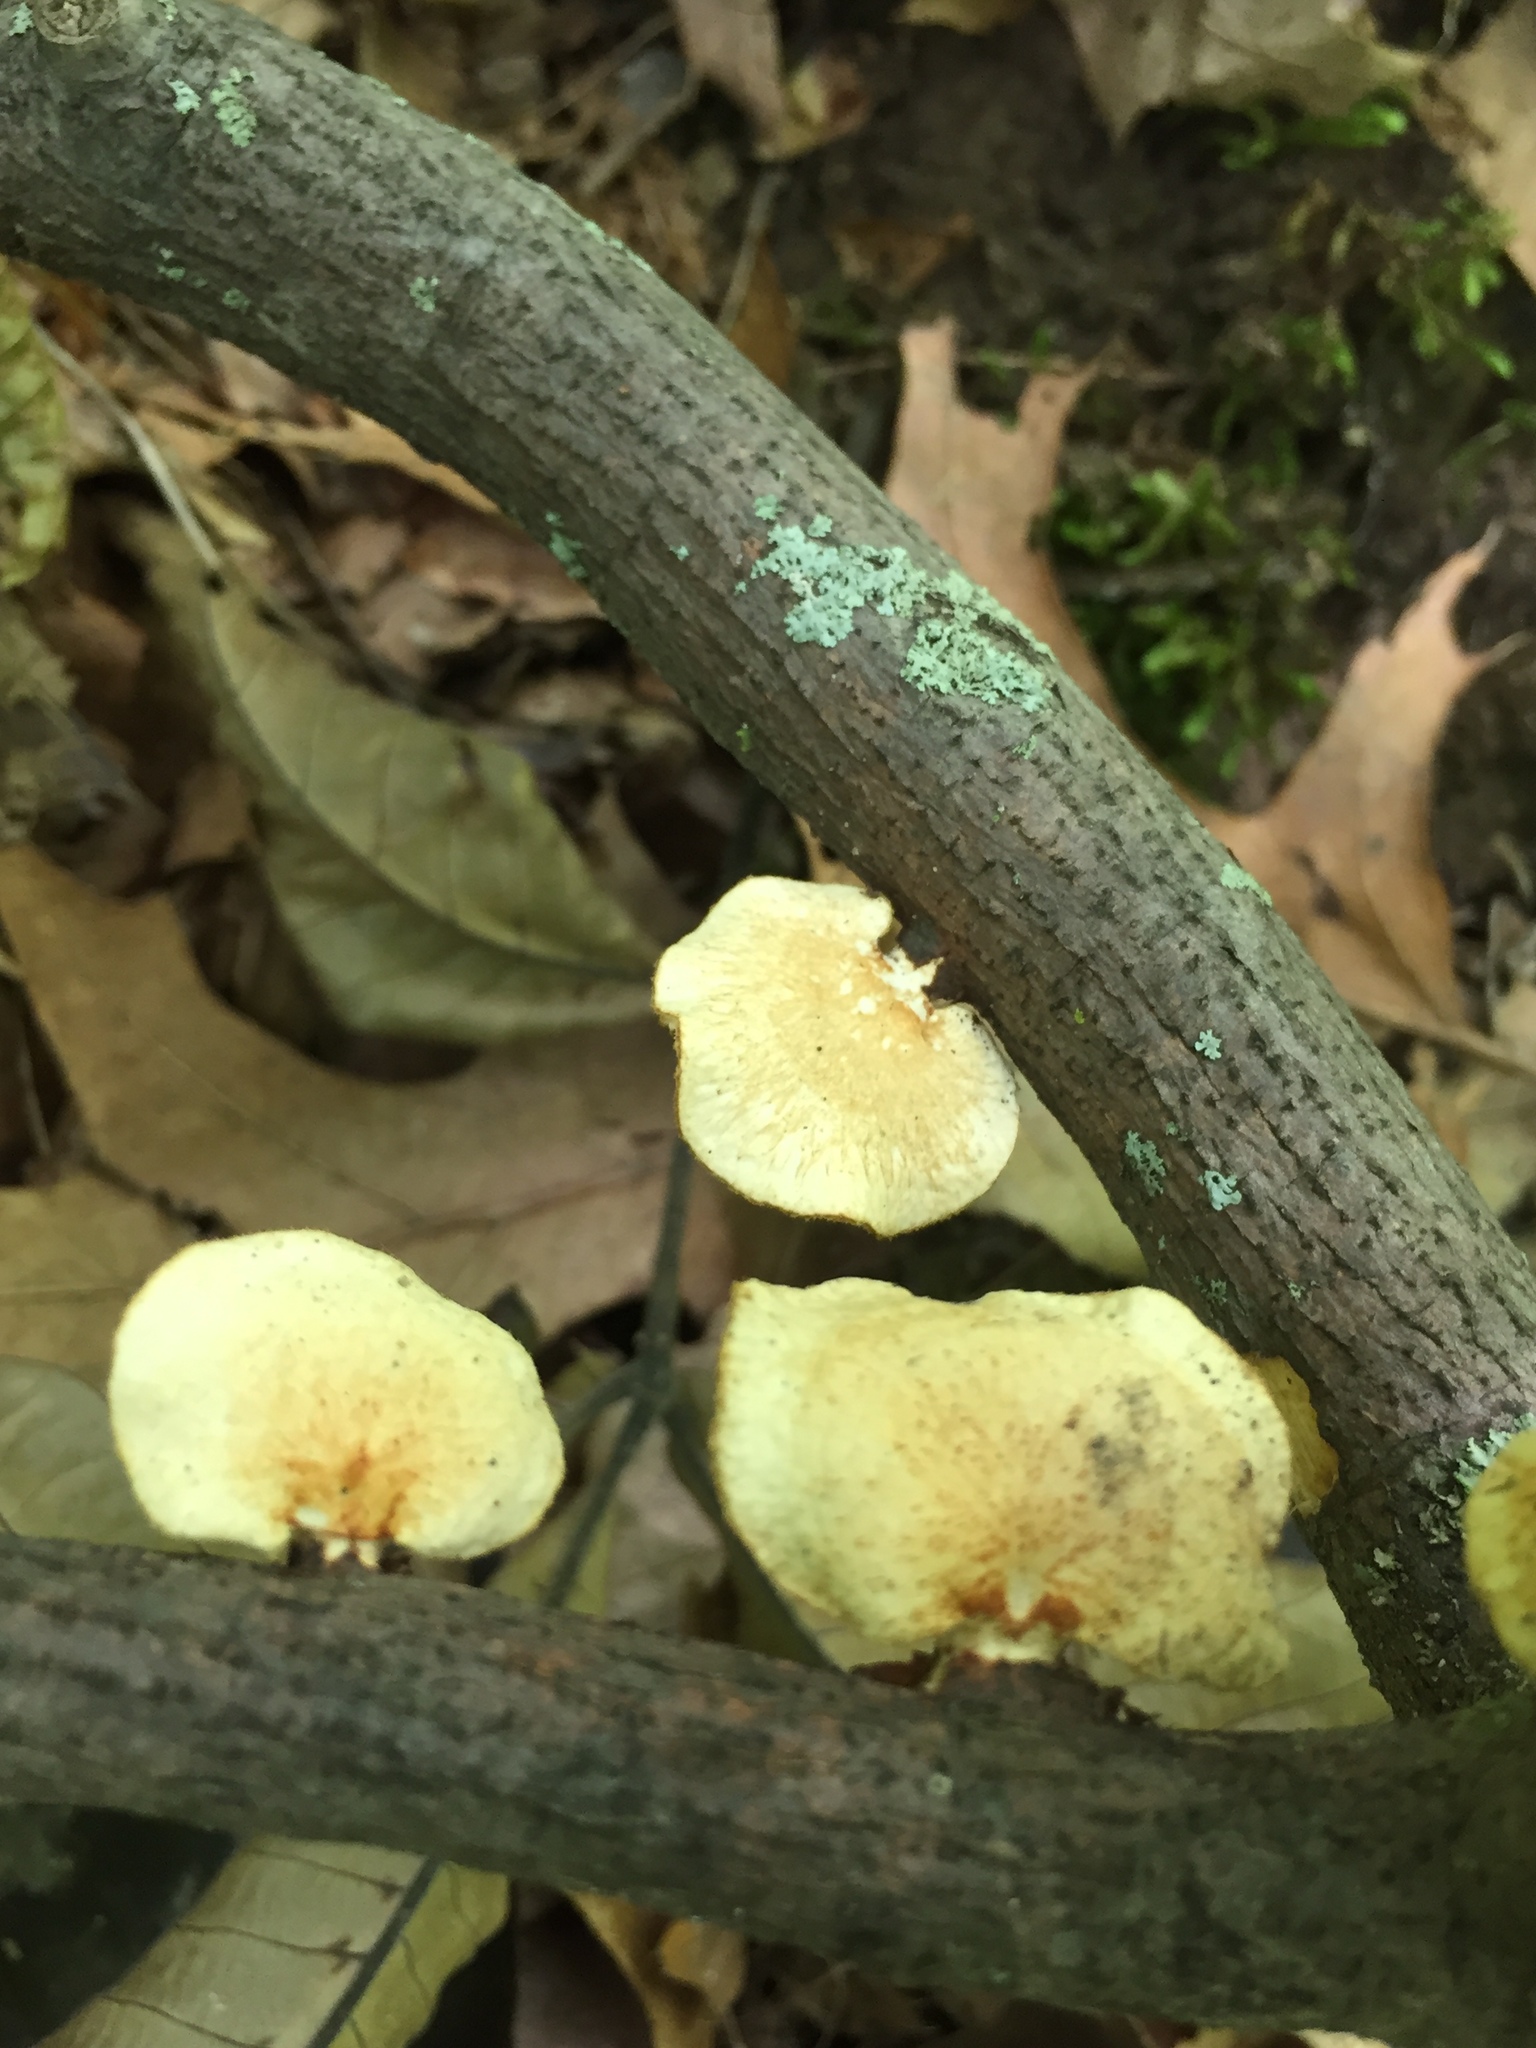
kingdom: Fungi
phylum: Basidiomycota
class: Agaricomycetes
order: Polyporales
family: Polyporaceae
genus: Neofavolus
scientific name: Neofavolus alveolaris
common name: Hexagonal-pored polypore
